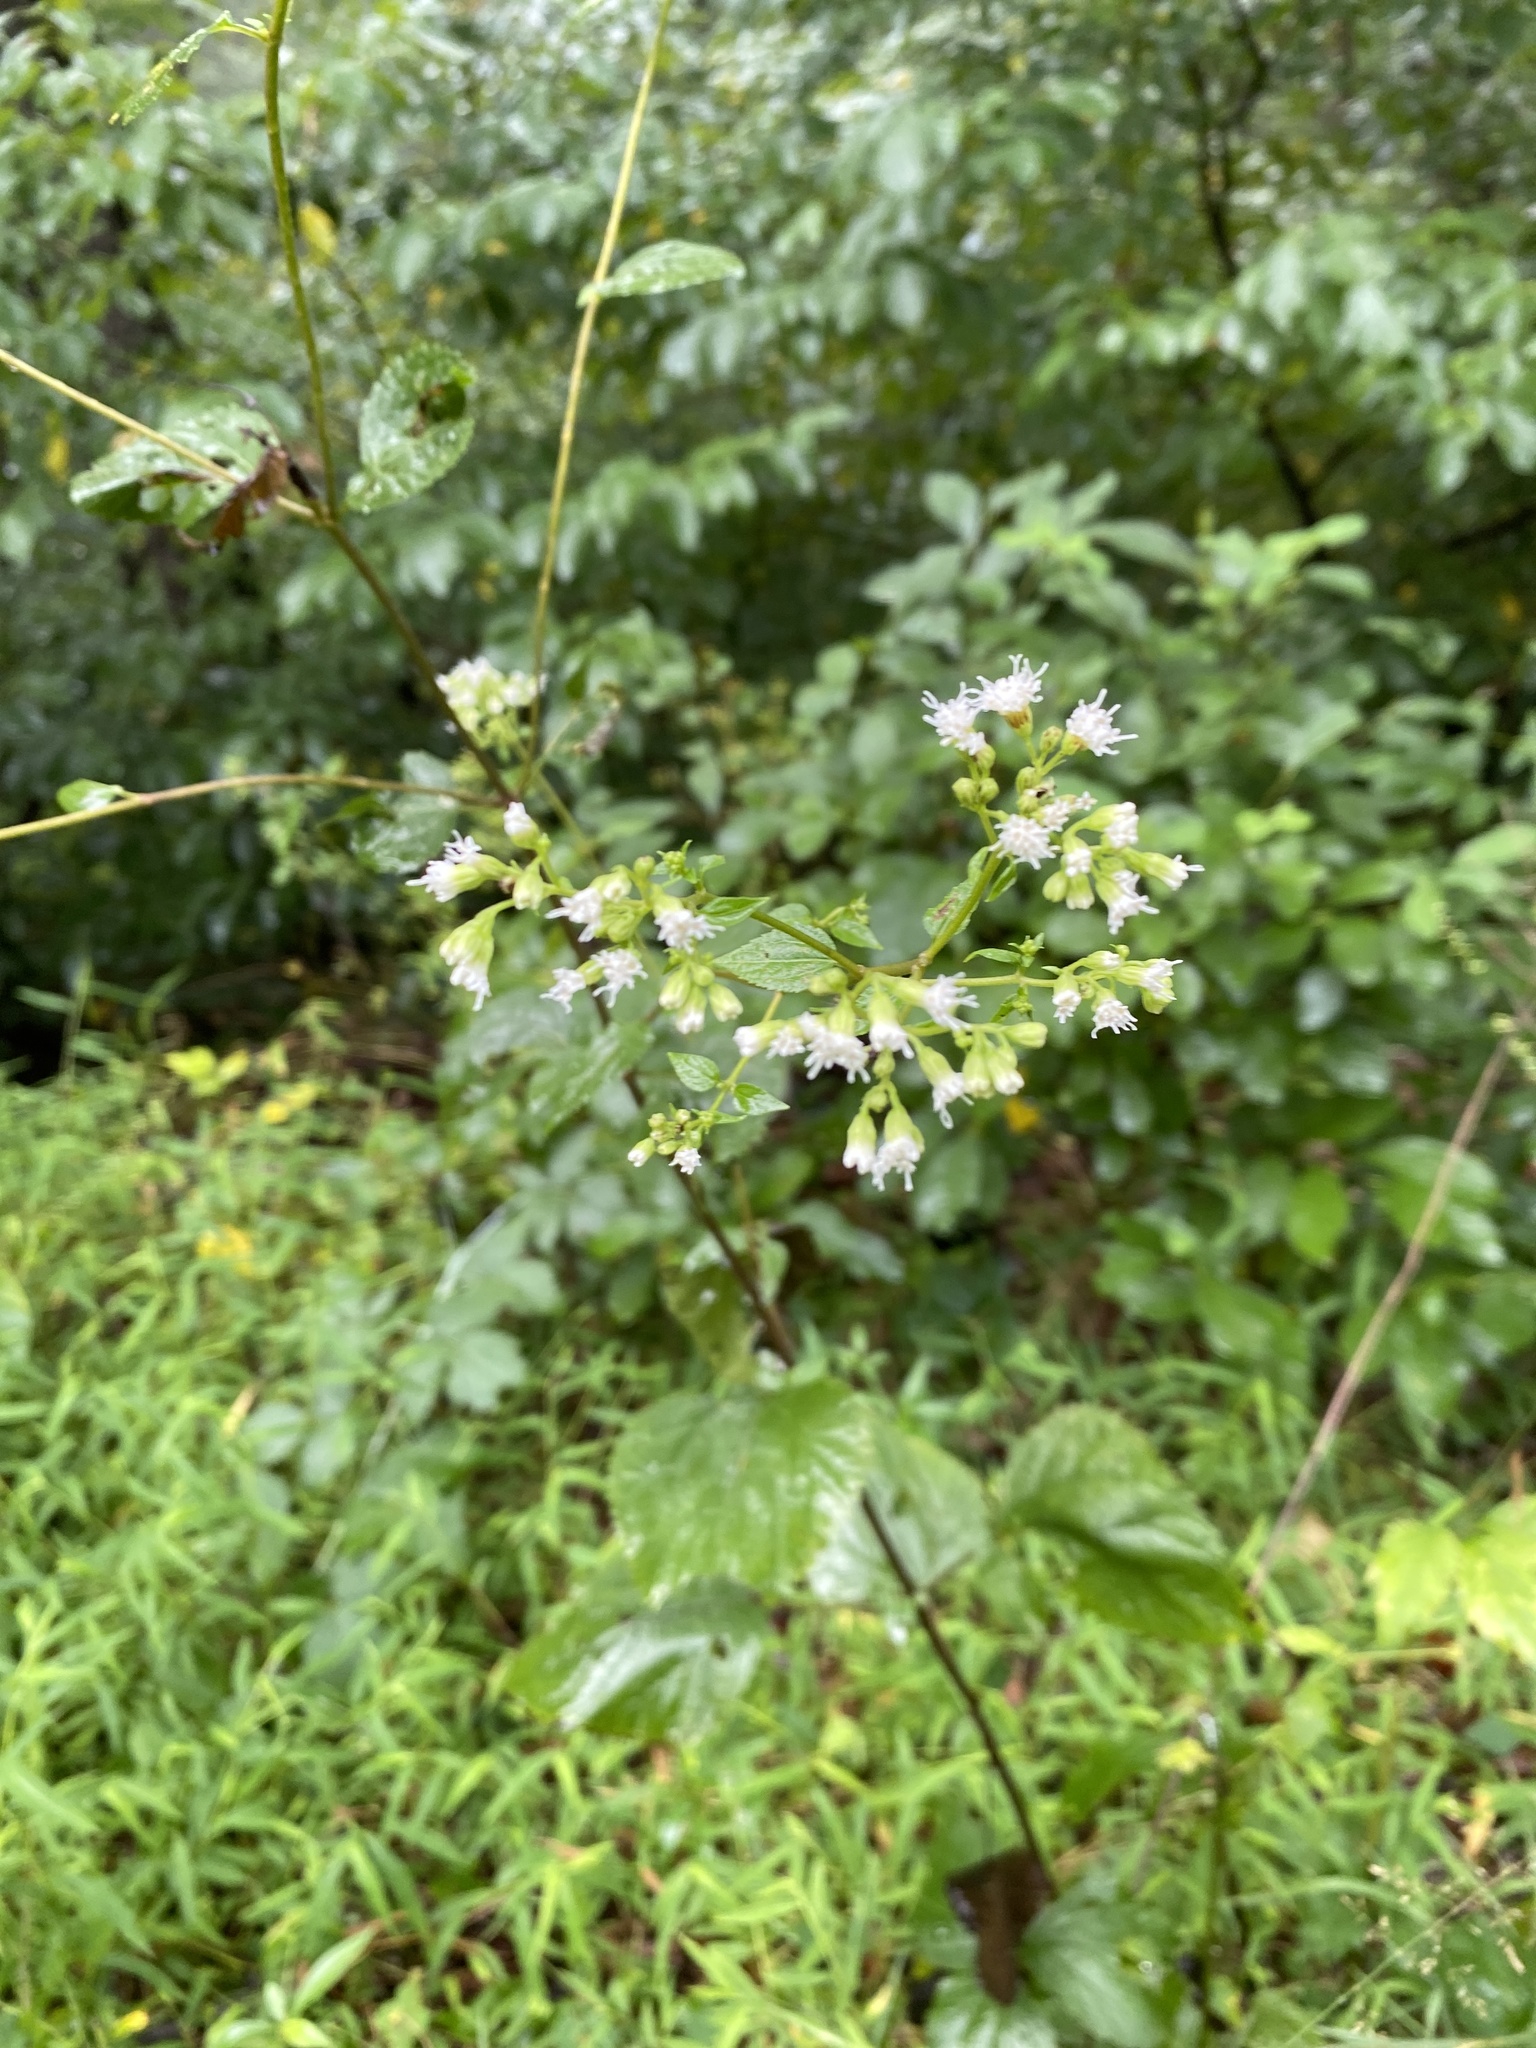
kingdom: Plantae
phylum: Tracheophyta
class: Magnoliopsida
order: Asterales
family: Asteraceae
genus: Ageratina
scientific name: Ageratina altissima
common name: White snakeroot
